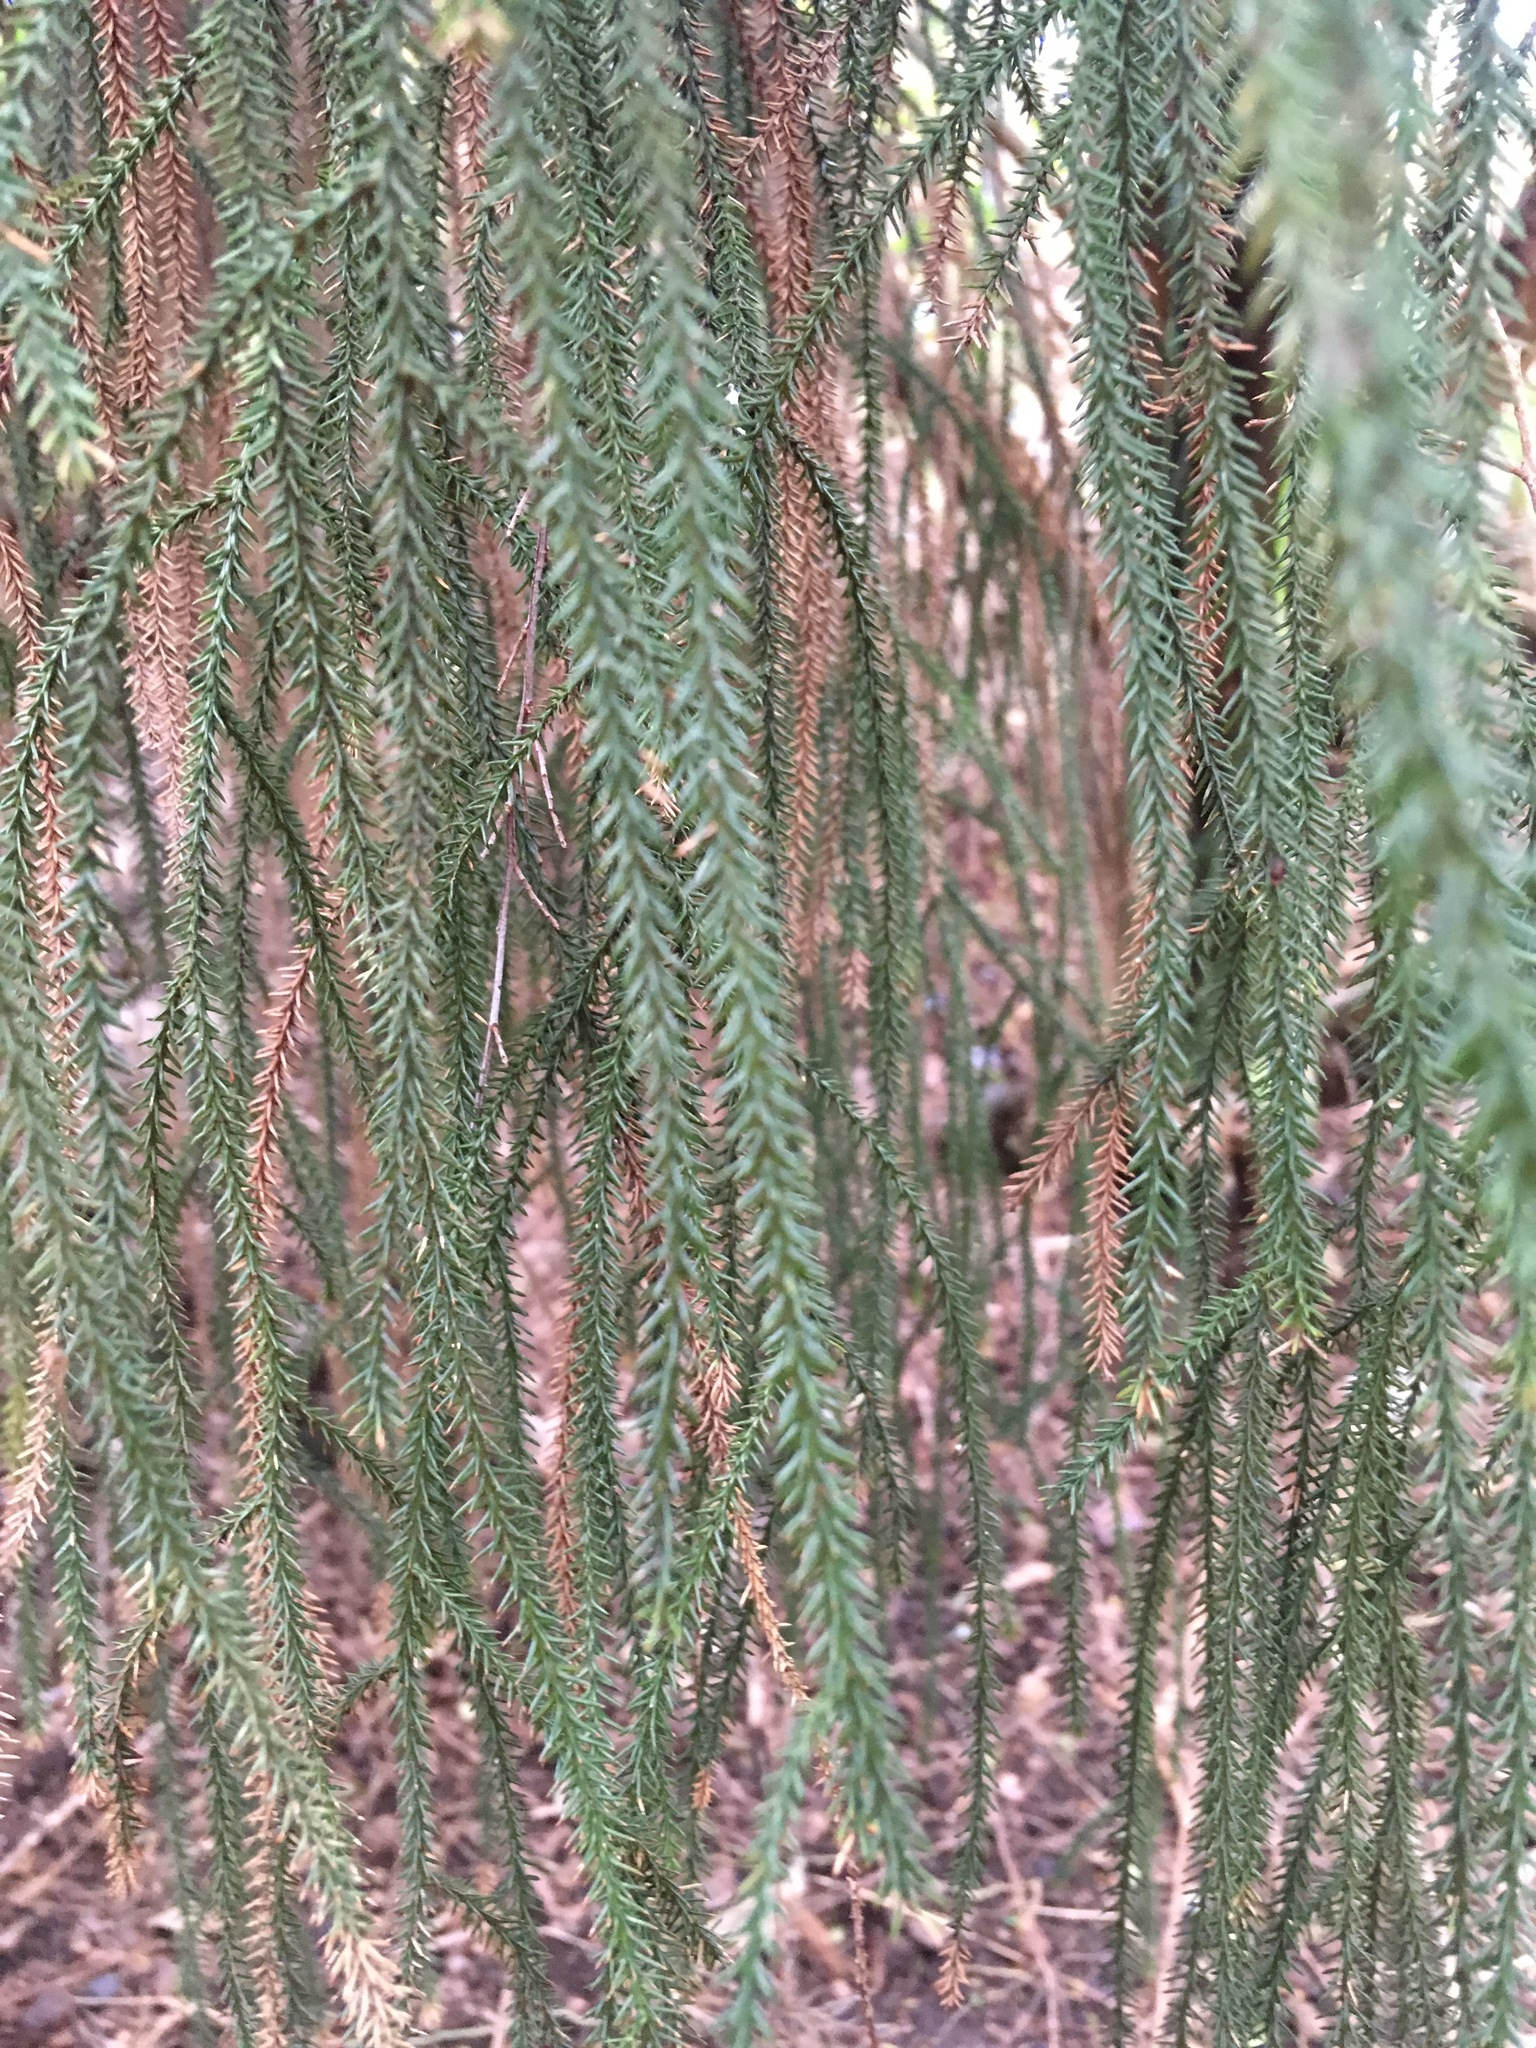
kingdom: Plantae
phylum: Tracheophyta
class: Pinopsida
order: Pinales
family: Podocarpaceae
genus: Dacrydium
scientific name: Dacrydium cupressinum
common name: Red pine
